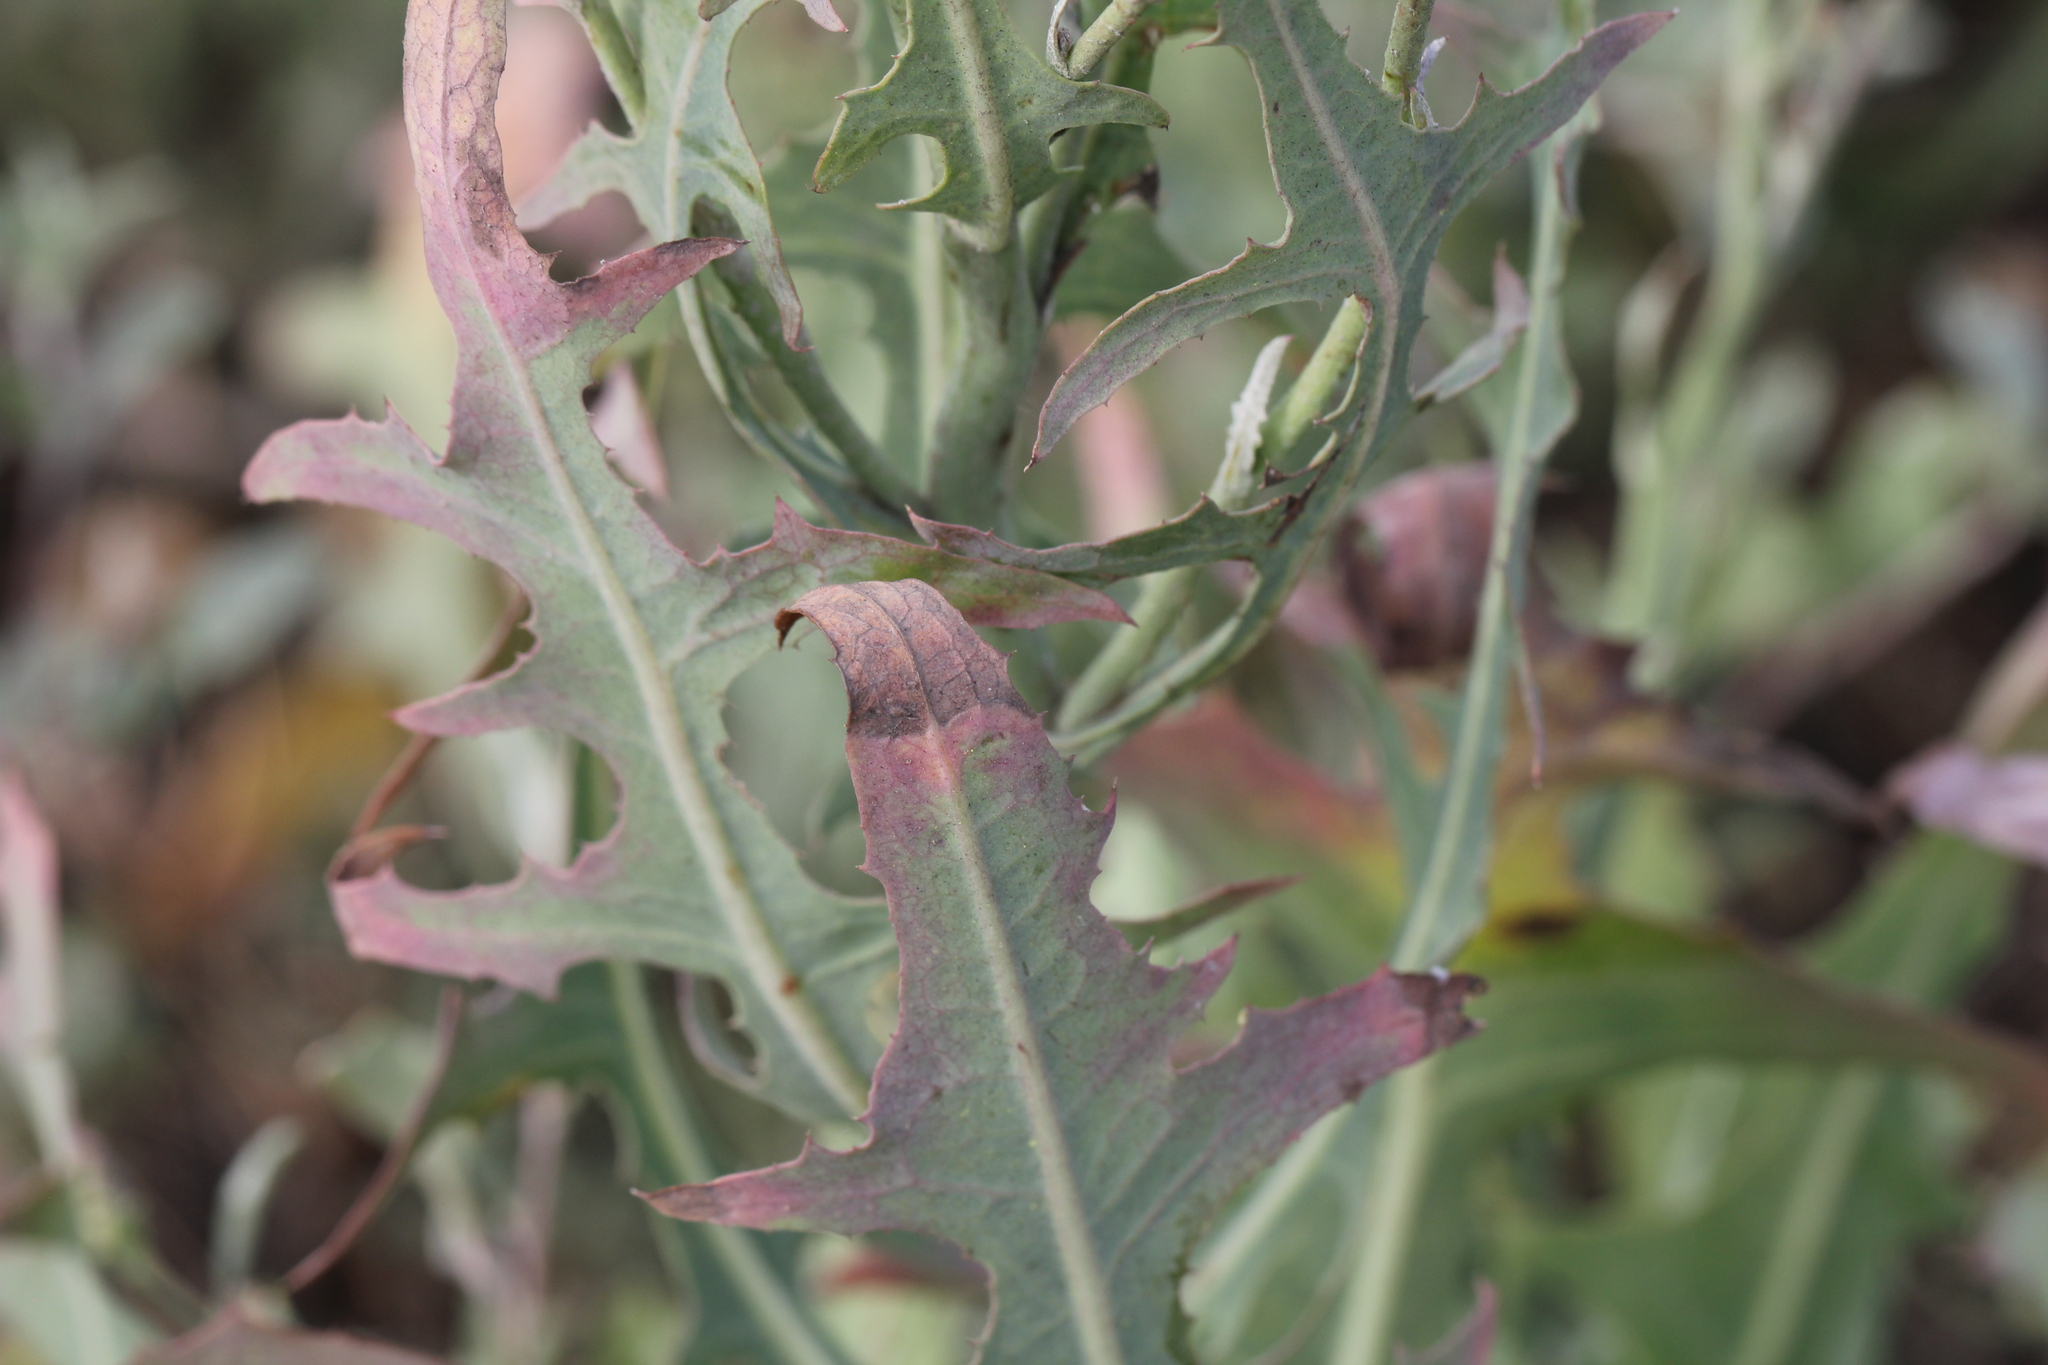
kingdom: Plantae
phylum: Tracheophyta
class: Magnoliopsida
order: Asterales
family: Asteraceae
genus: Lactuca
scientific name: Lactuca tatarica
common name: Blue lettuce
